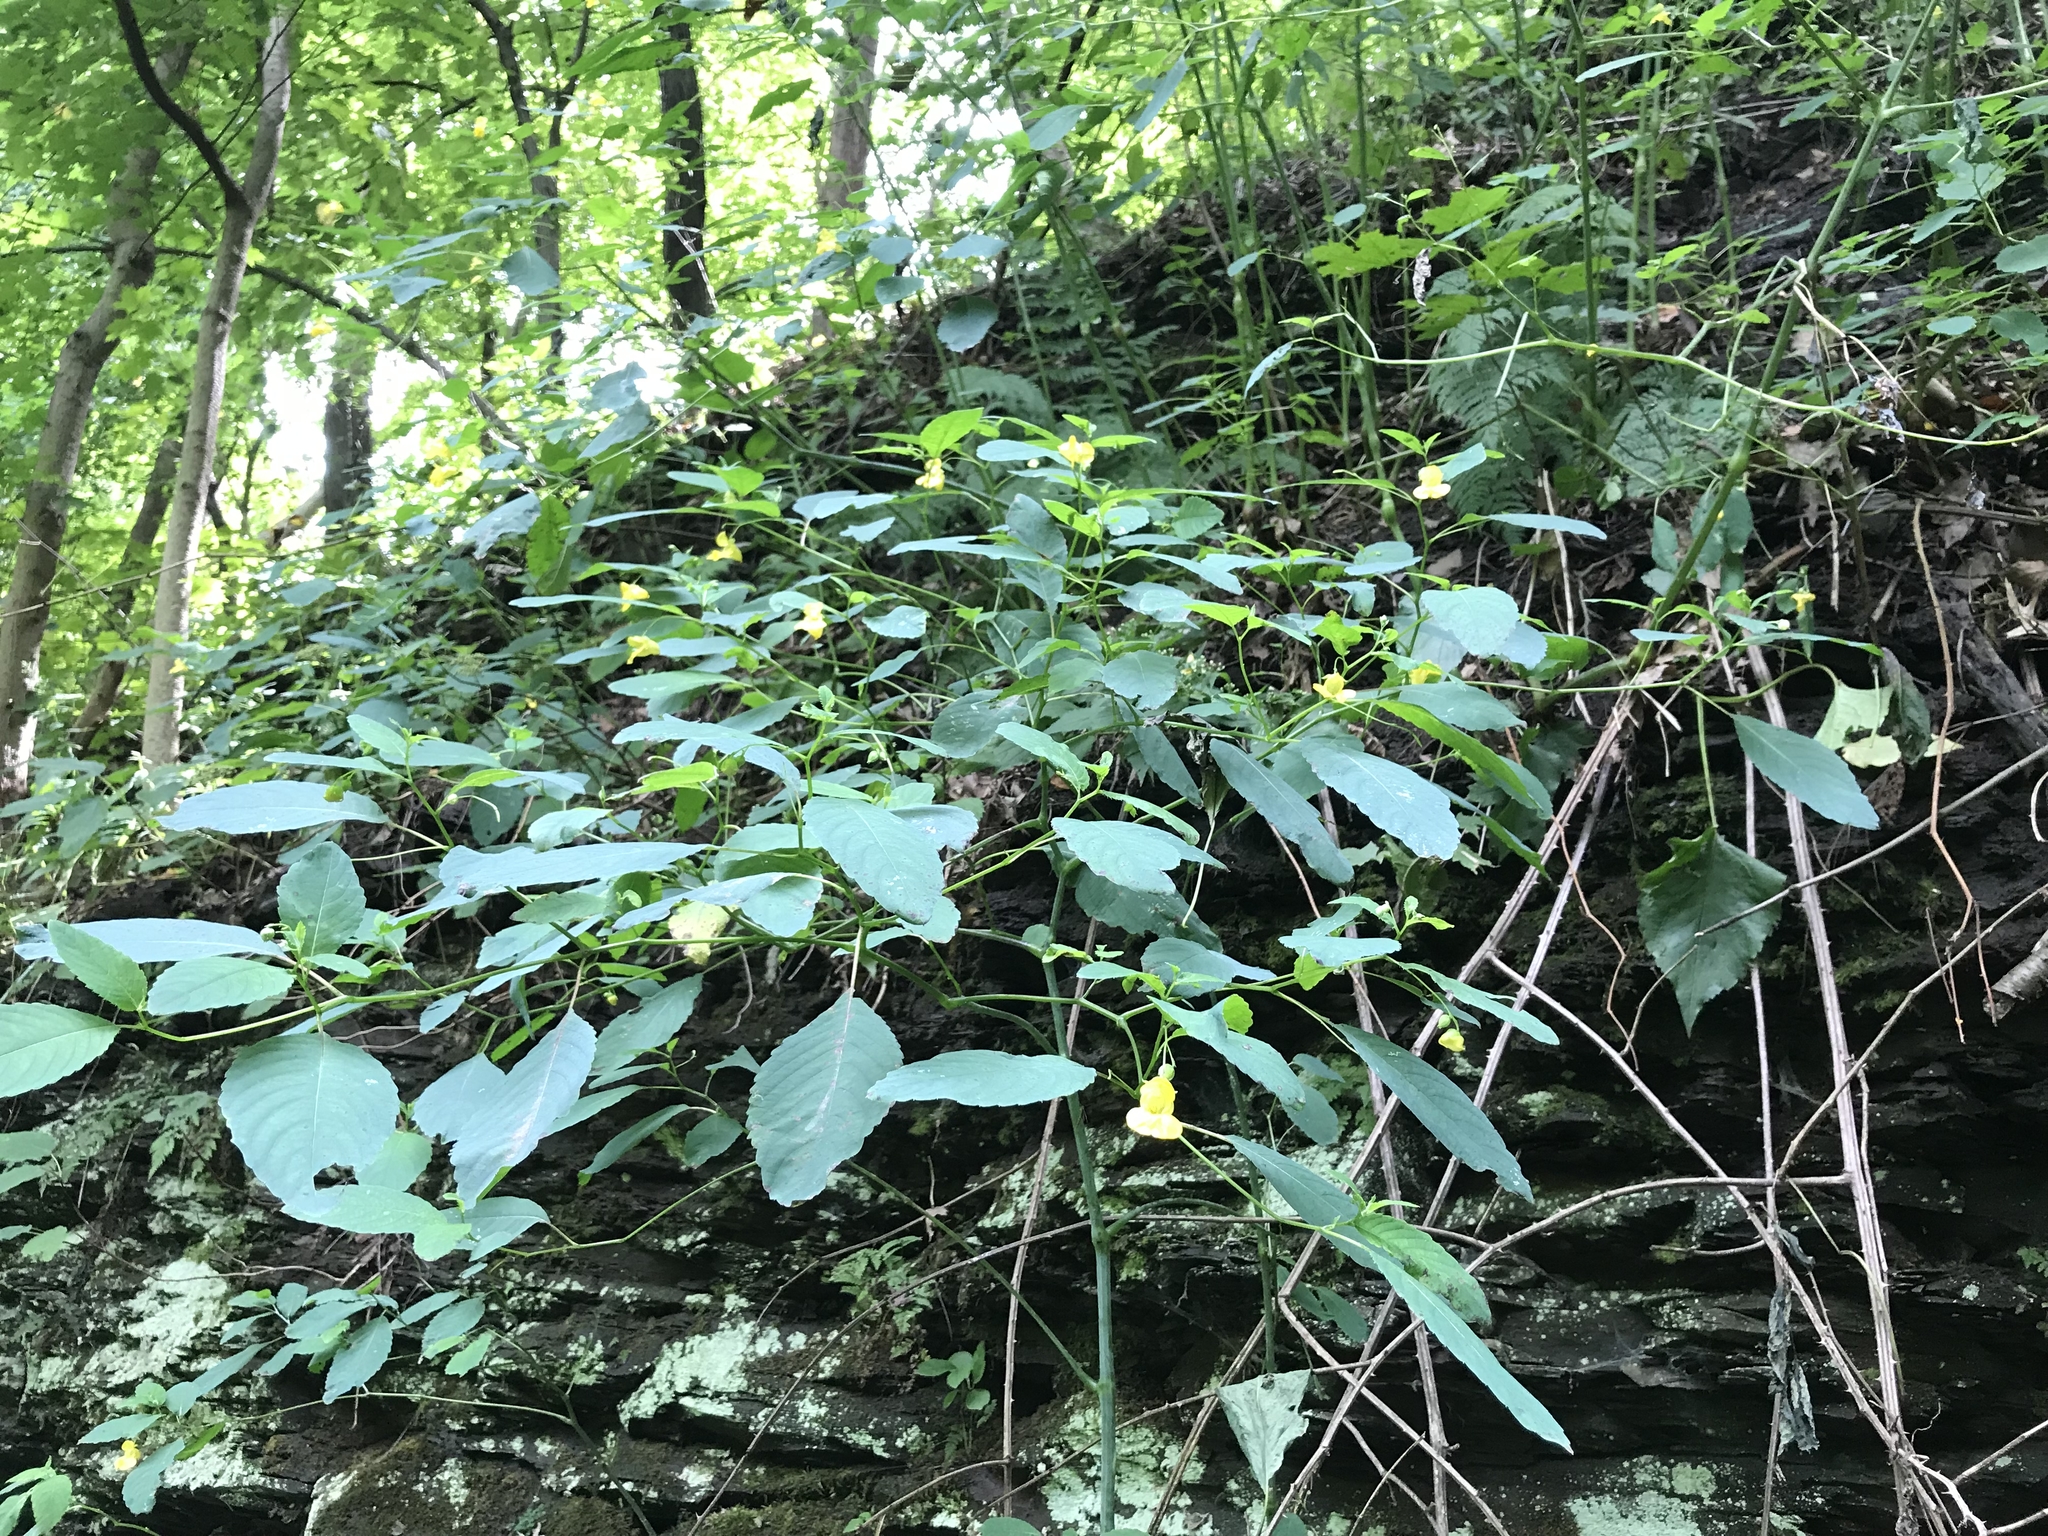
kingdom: Plantae
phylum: Tracheophyta
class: Magnoliopsida
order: Ericales
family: Balsaminaceae
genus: Impatiens
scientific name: Impatiens pallida
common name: Pale snapweed
